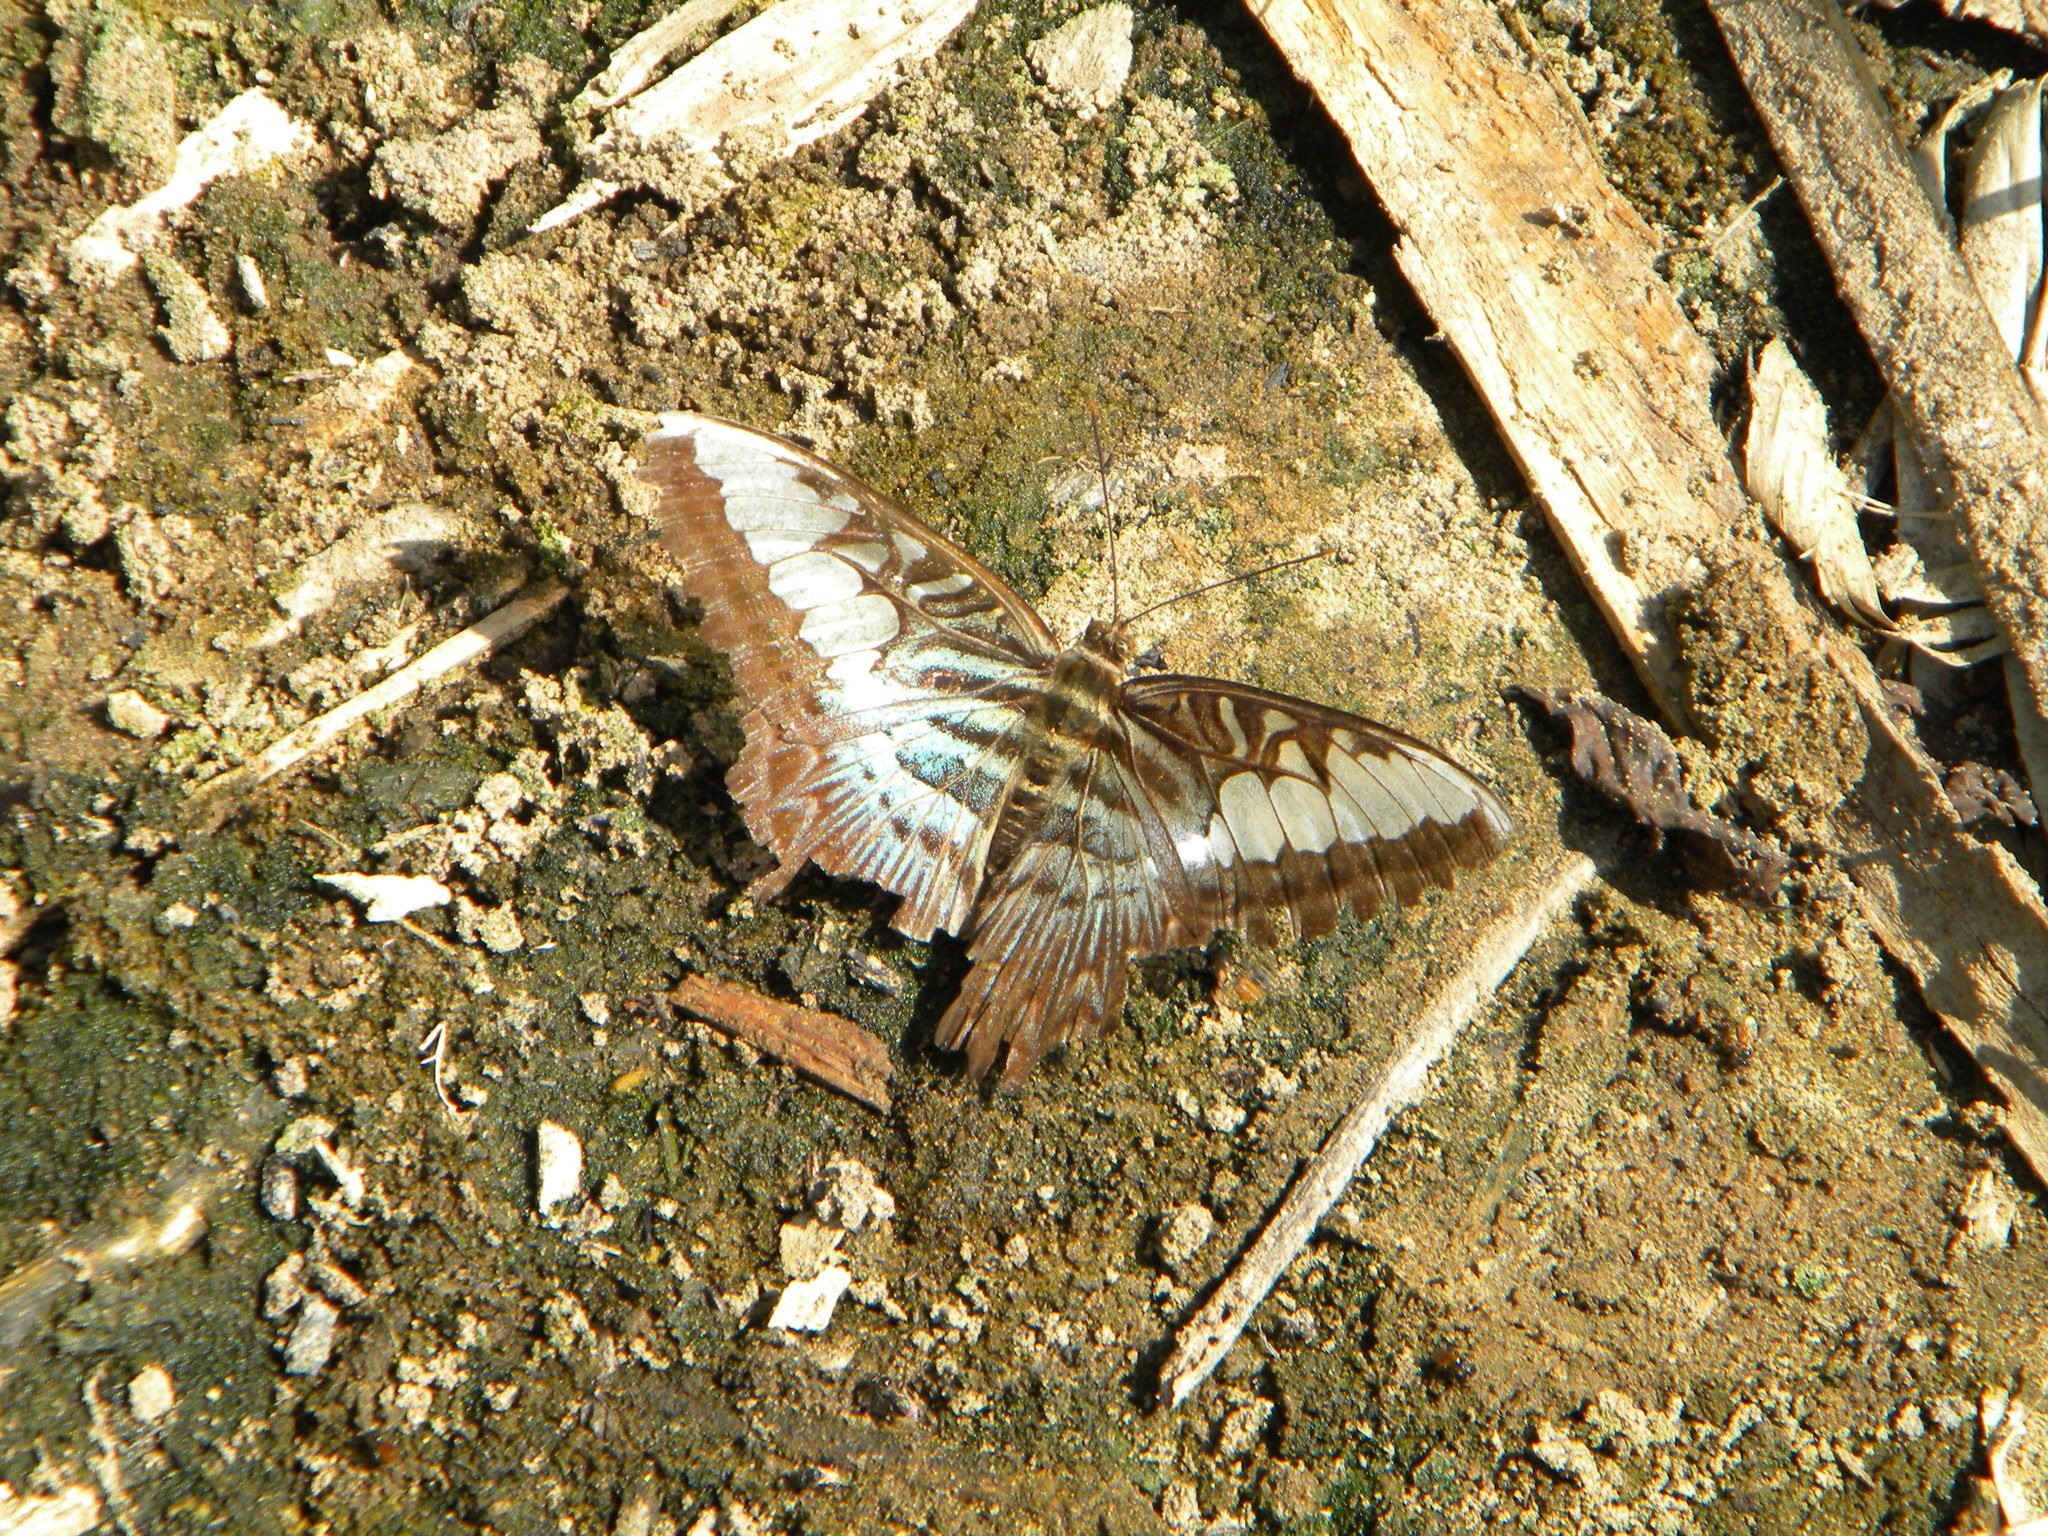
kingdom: Animalia
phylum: Arthropoda
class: Insecta
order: Lepidoptera
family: Nymphalidae
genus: Kallima
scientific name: Kallima sylvia
